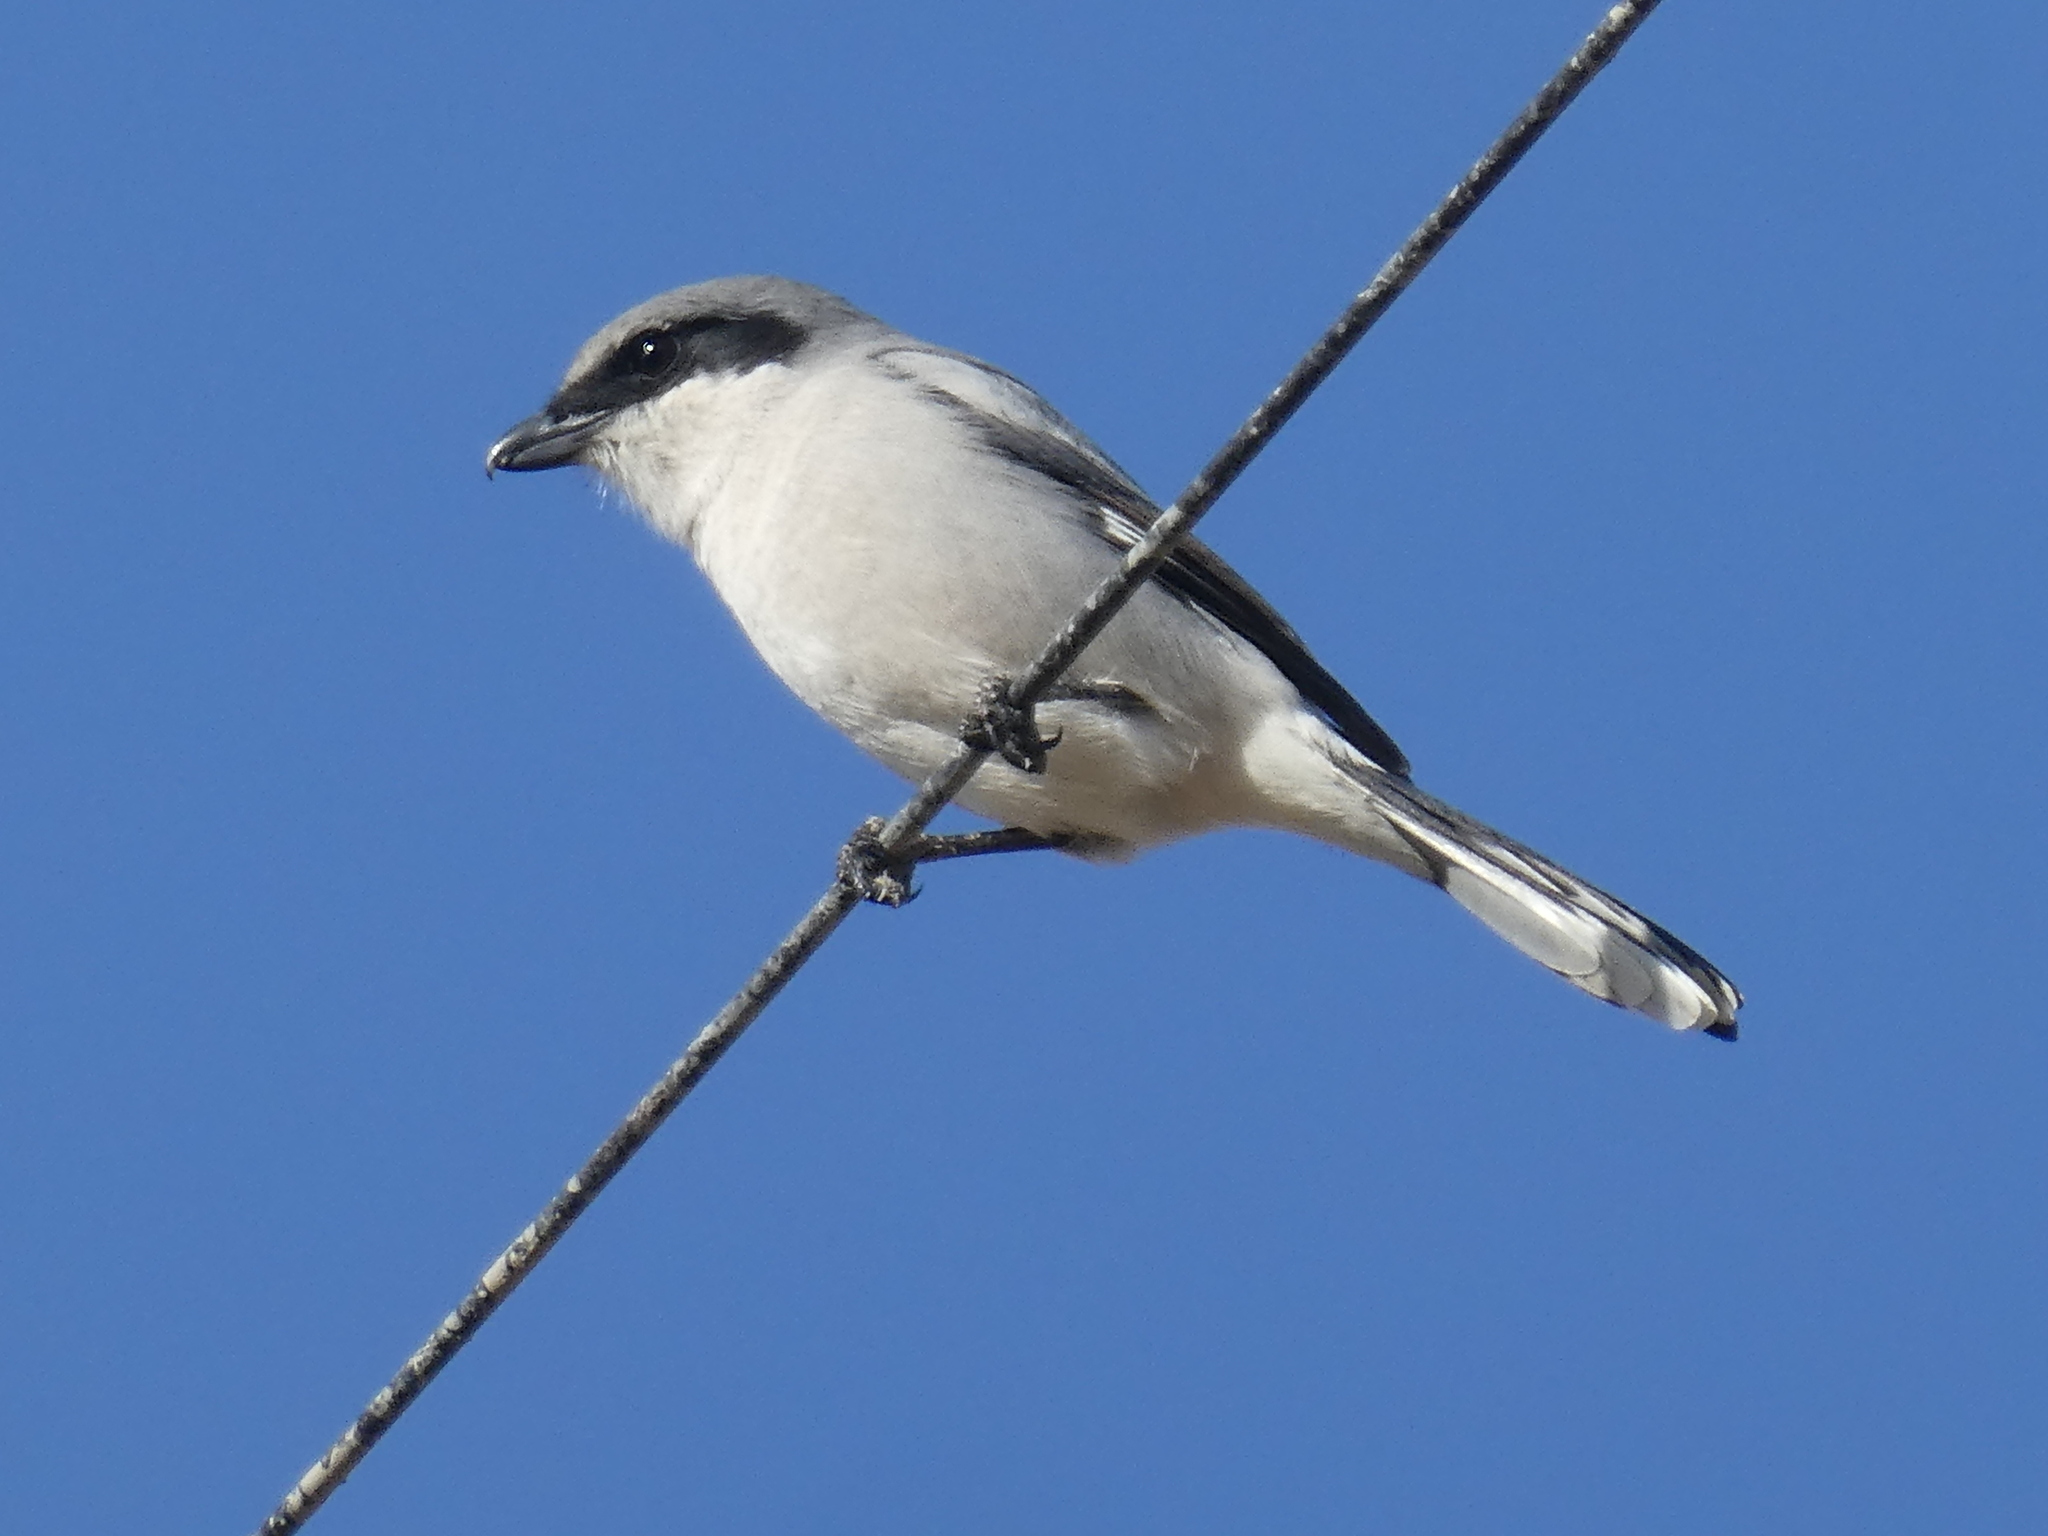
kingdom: Animalia
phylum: Chordata
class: Aves
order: Passeriformes
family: Laniidae
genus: Lanius
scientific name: Lanius ludovicianus
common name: Loggerhead shrike
